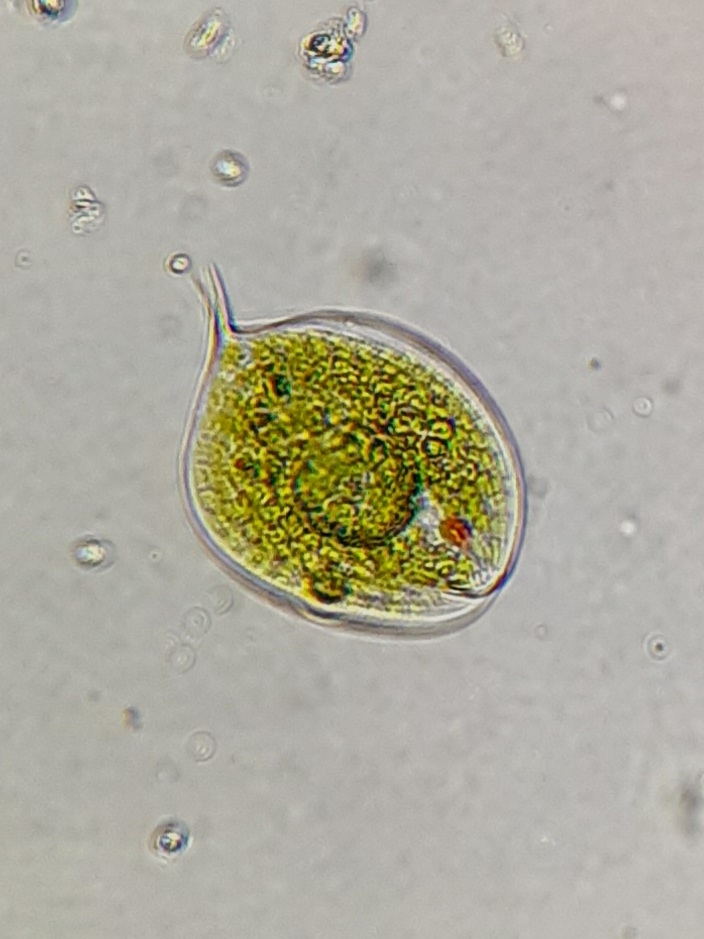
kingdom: Protozoa
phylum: Euglenozoa
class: Euglenoidea
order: Euglenida
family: Phacidae
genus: Phacus
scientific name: Phacus orbicularis
